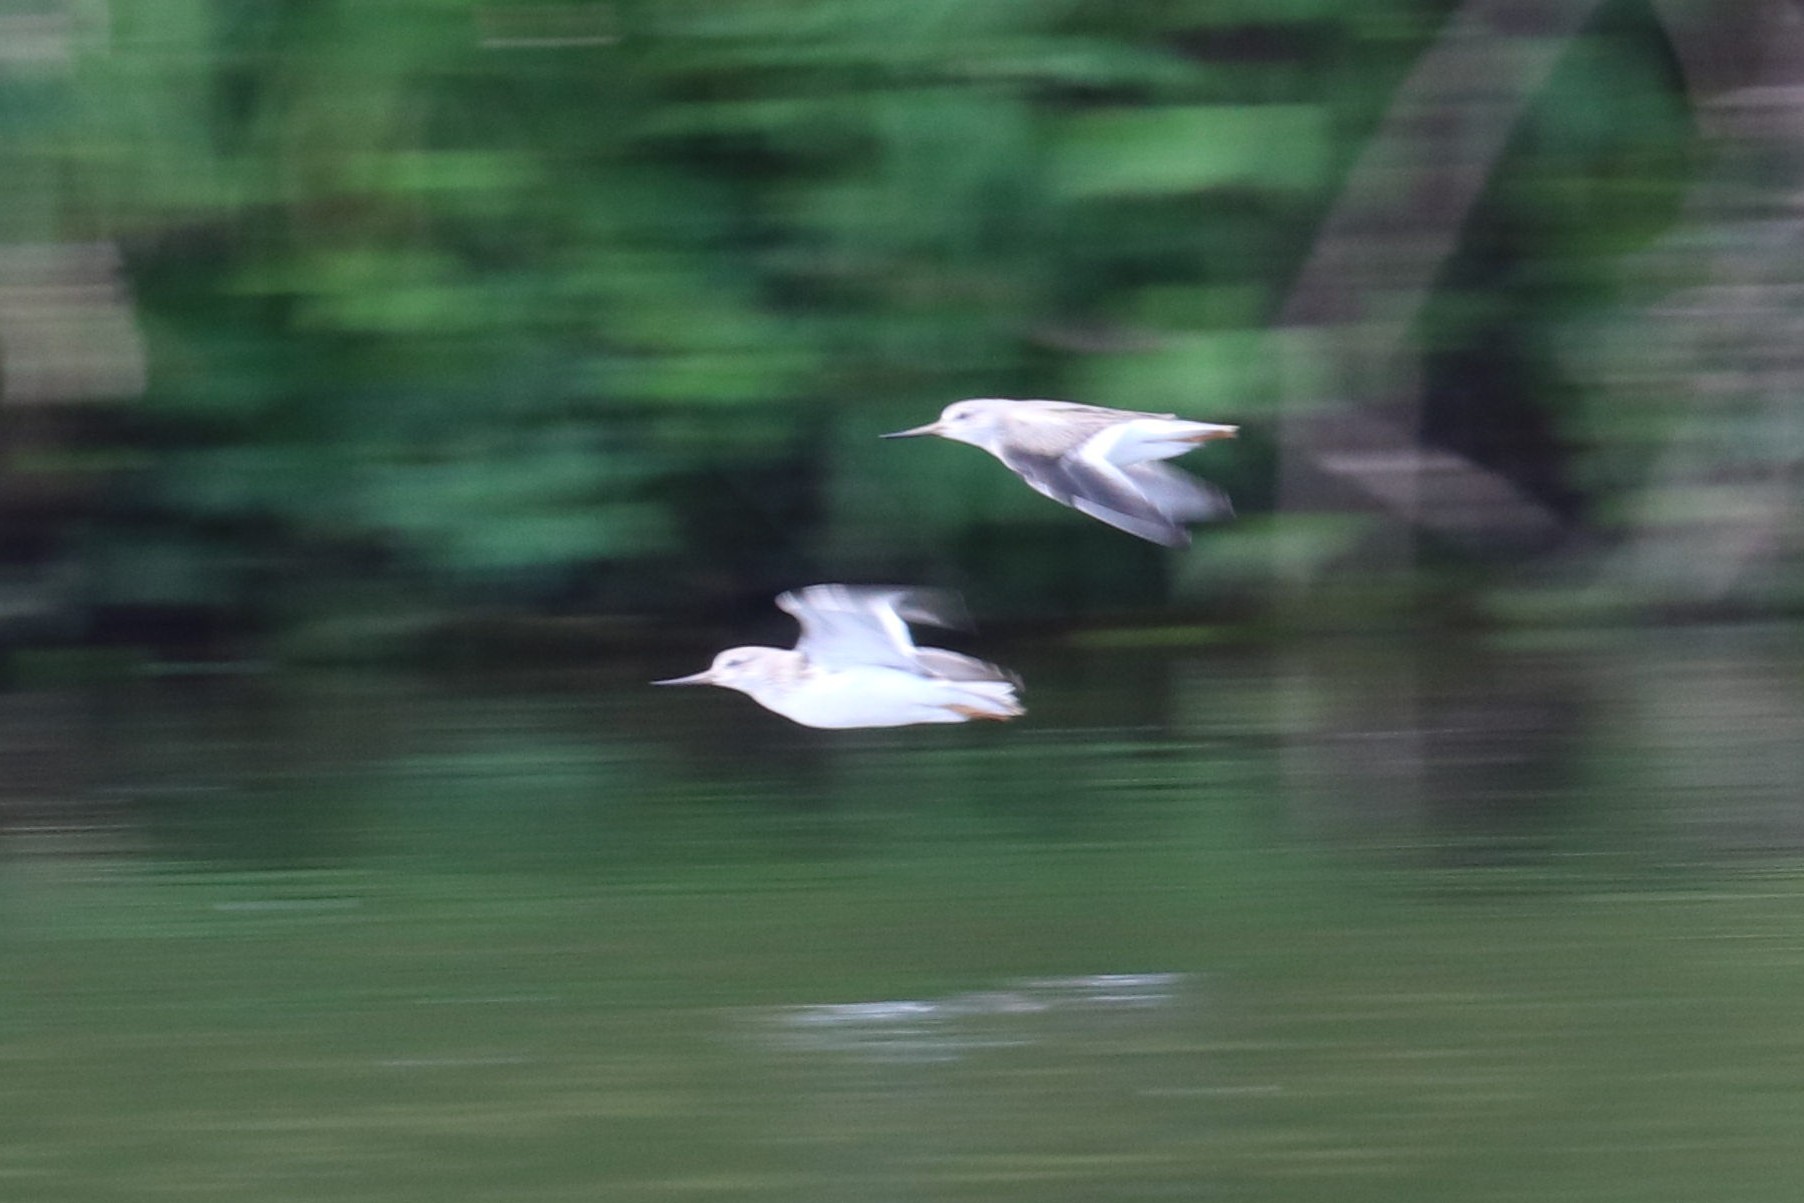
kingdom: Animalia
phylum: Chordata
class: Aves
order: Charadriiformes
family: Scolopacidae
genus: Xenus
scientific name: Xenus cinereus
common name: Terek sandpiper
